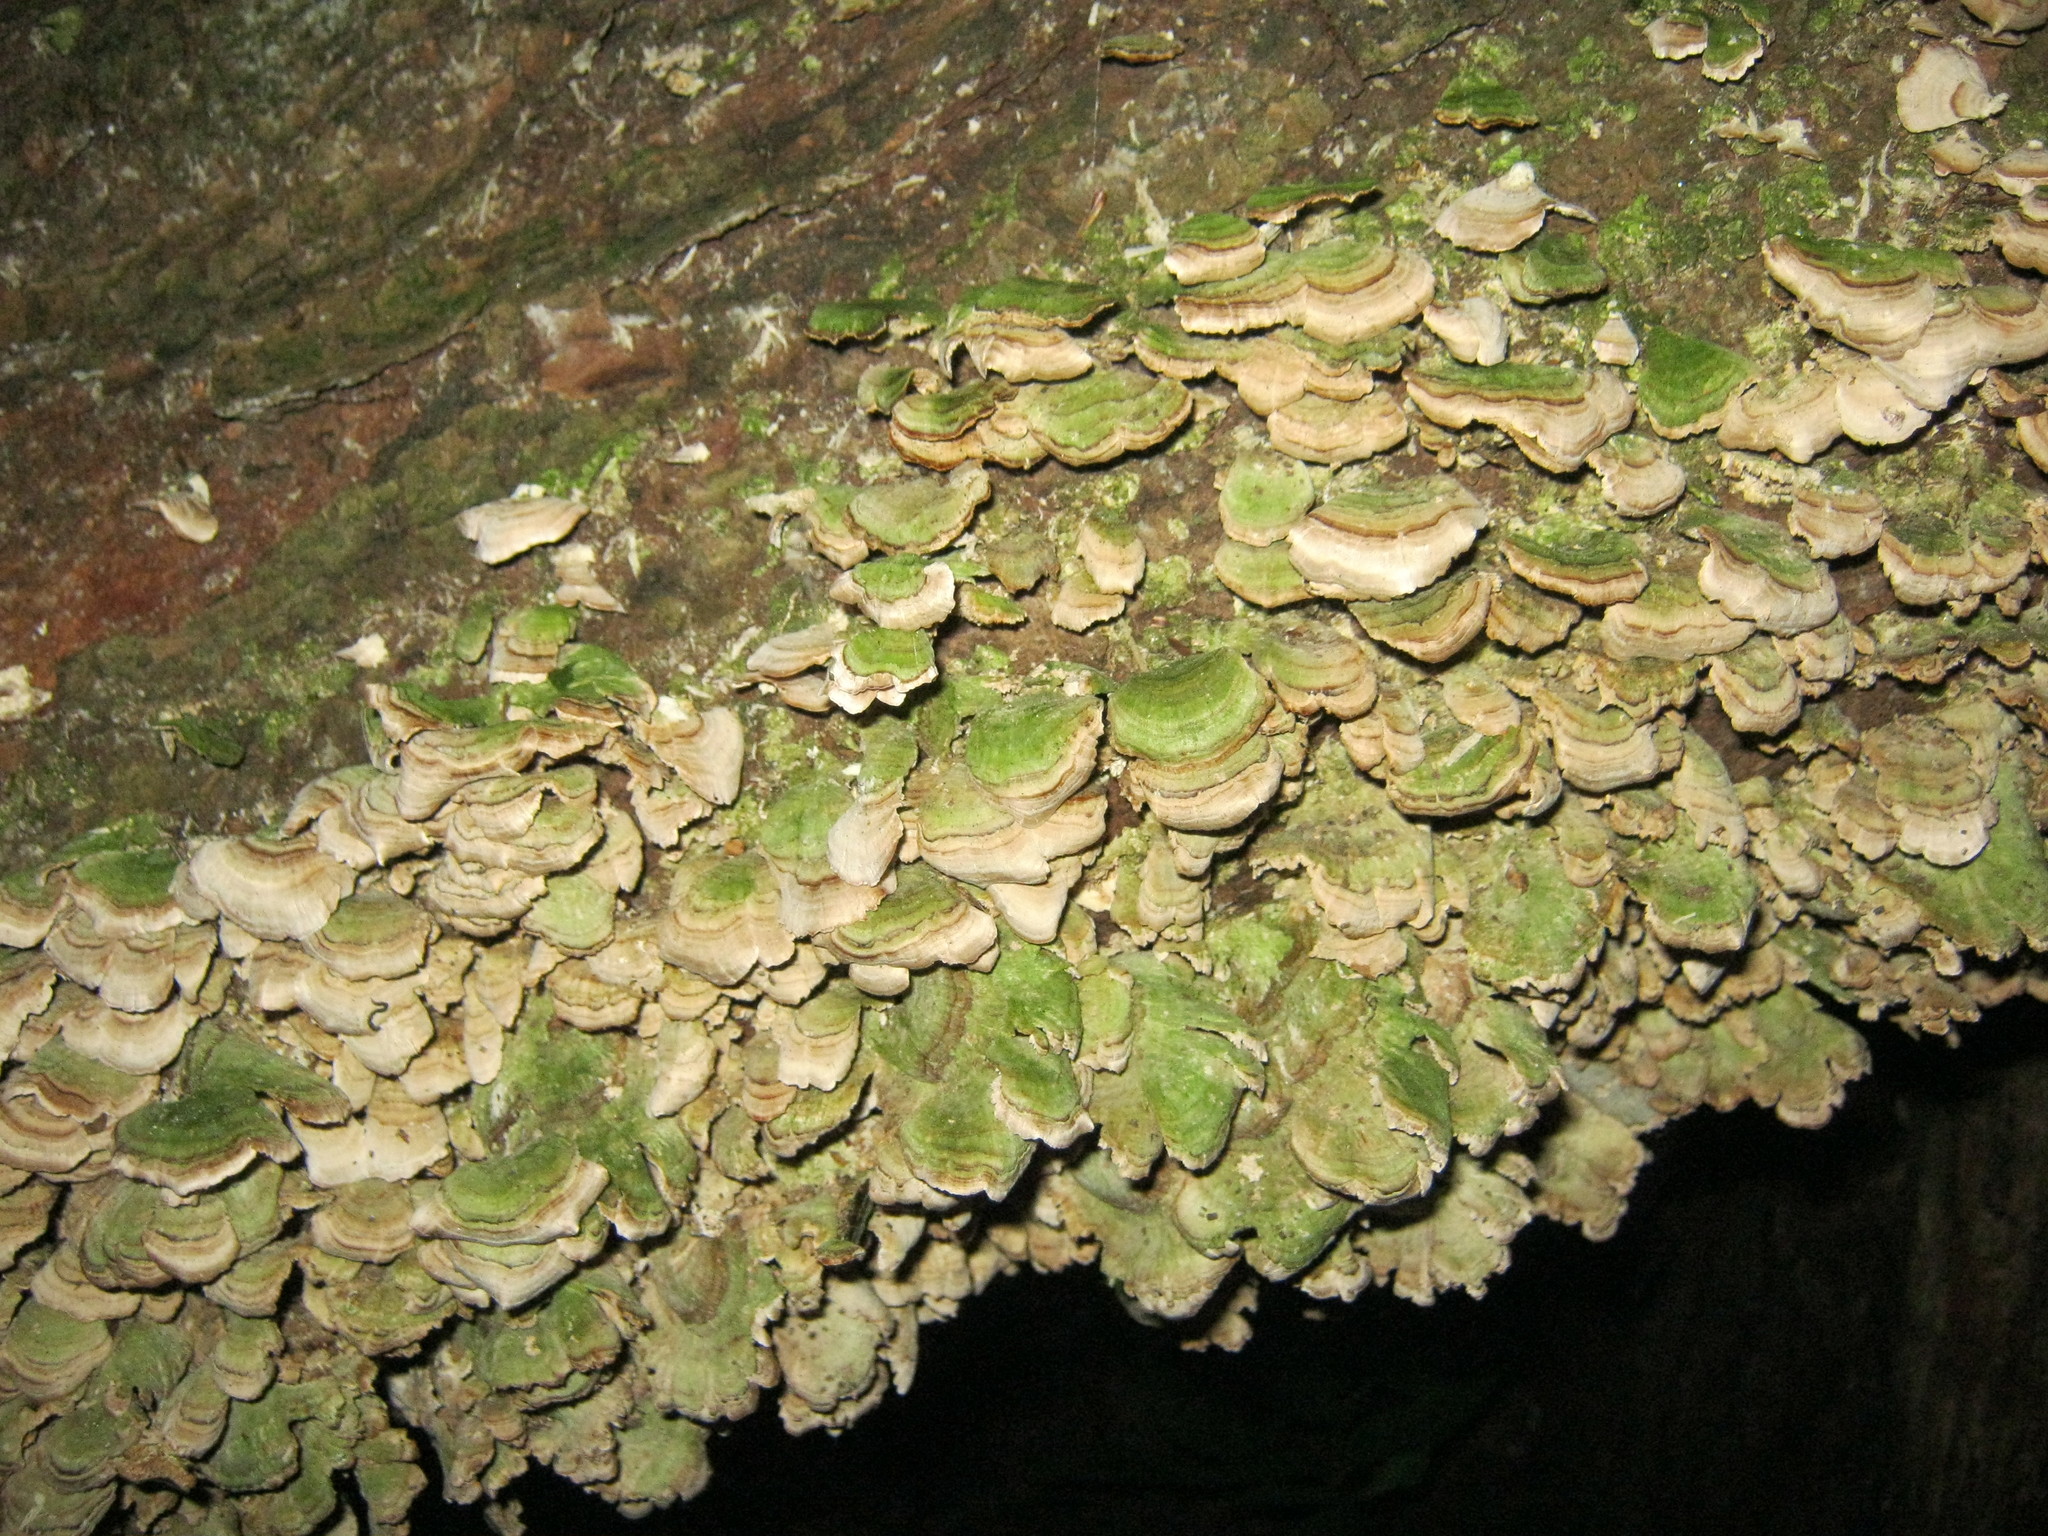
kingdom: Fungi
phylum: Basidiomycota
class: Agaricomycetes
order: Hymenochaetales
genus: Trichaptum
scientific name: Trichaptum biforme
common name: Violet-toothed polypore
